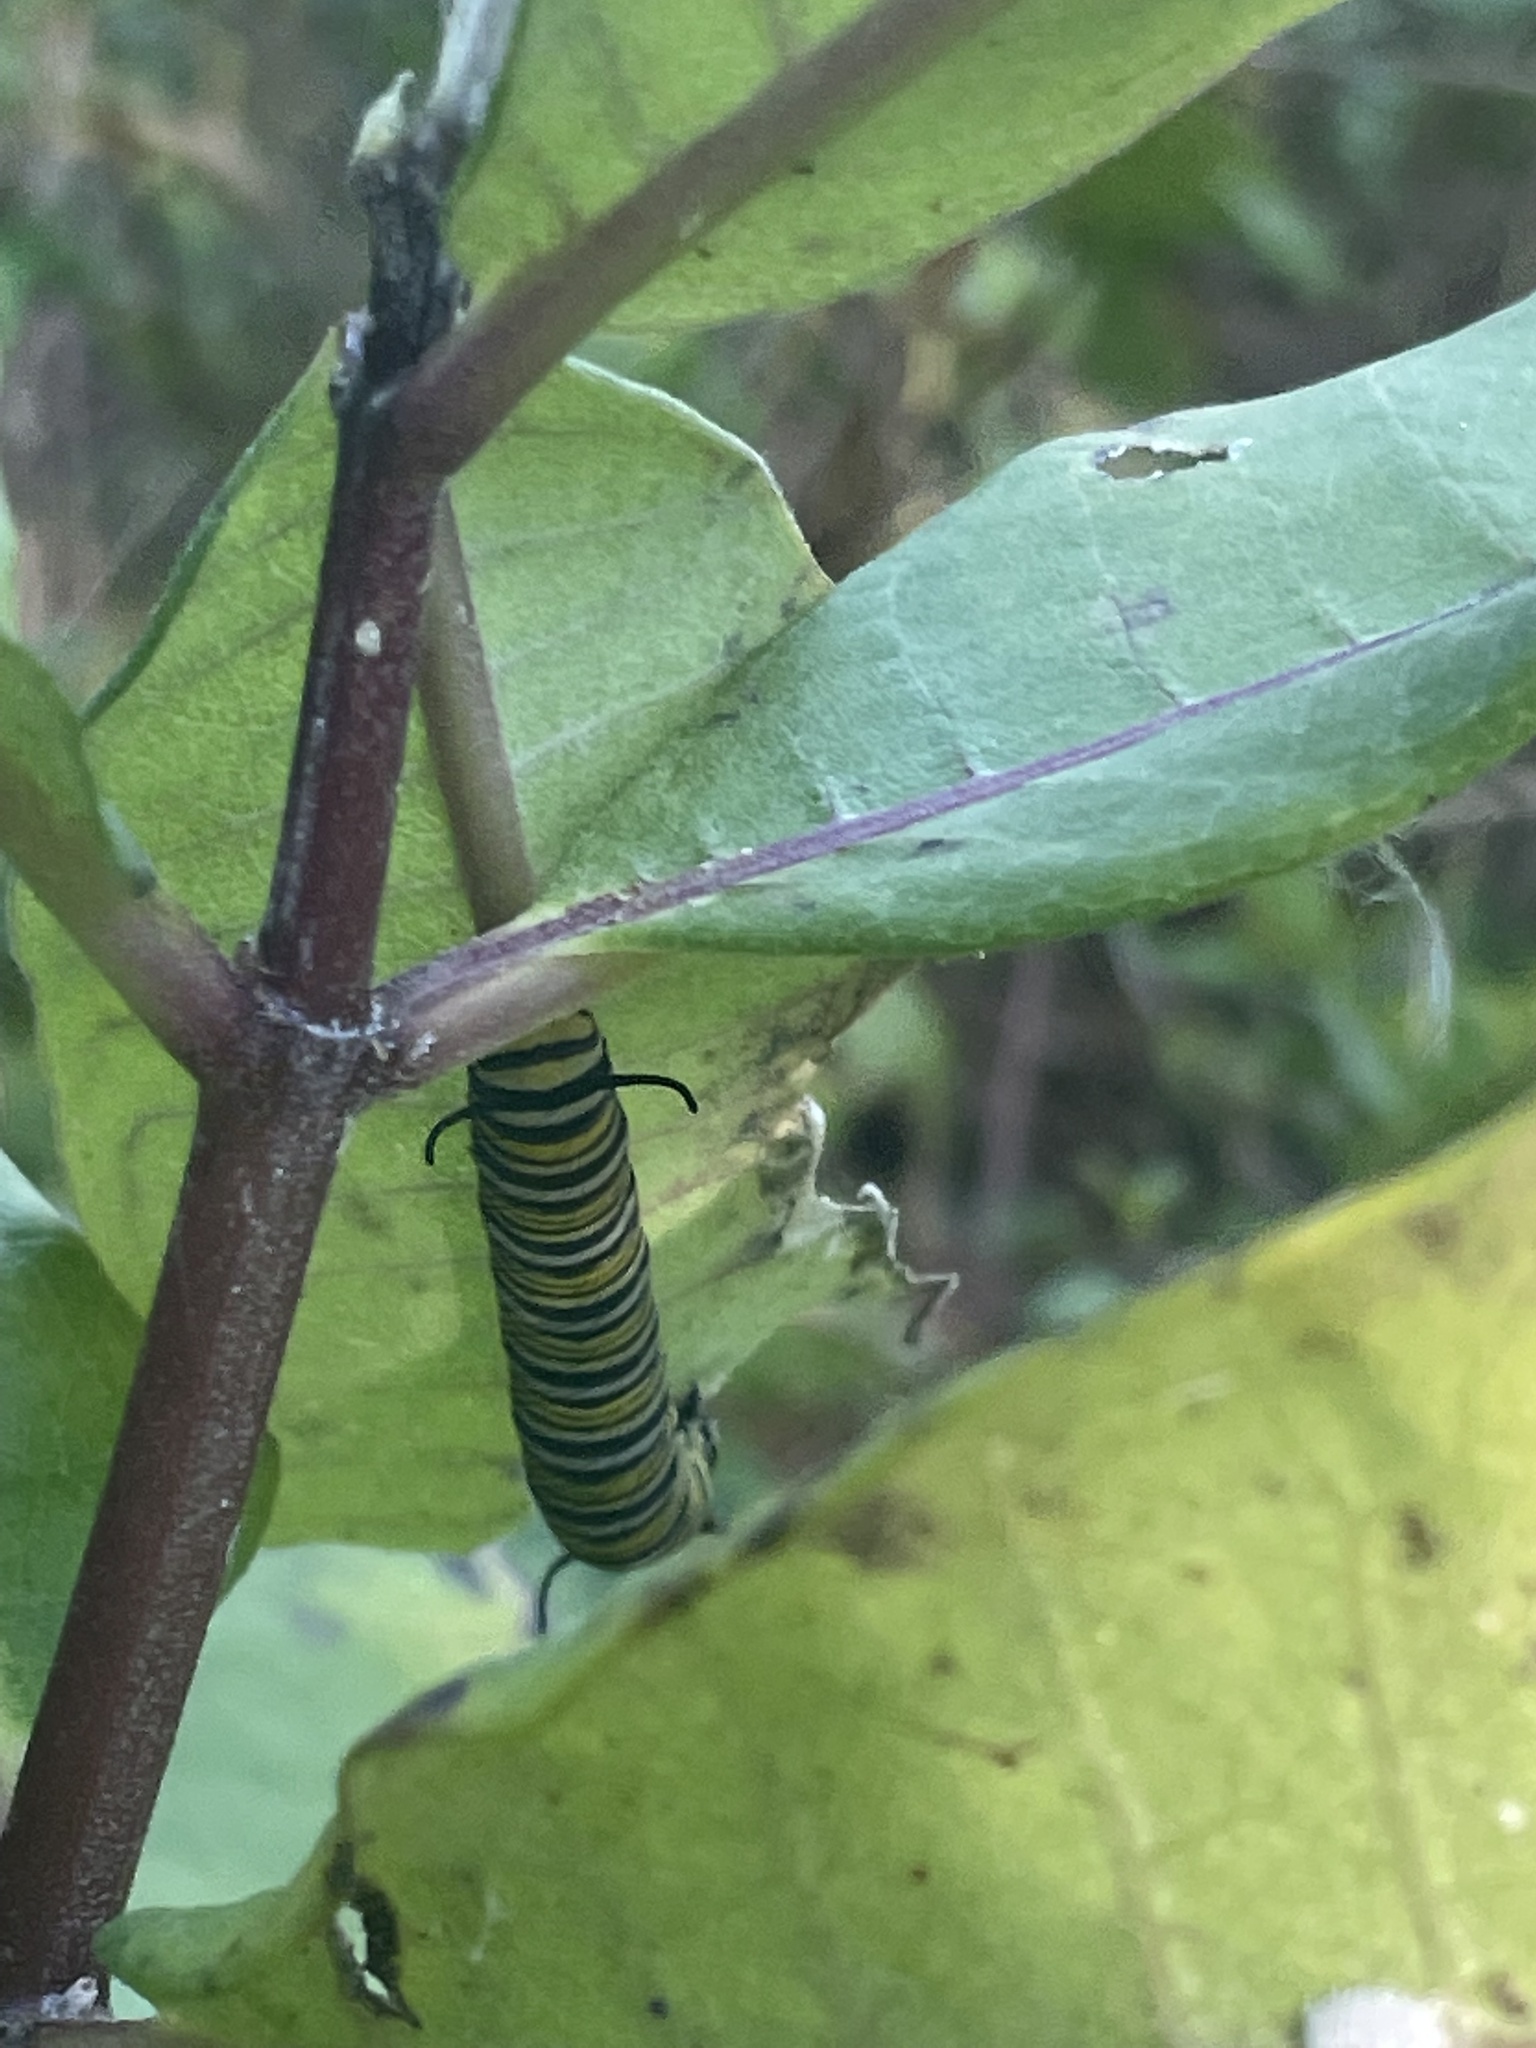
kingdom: Animalia
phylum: Arthropoda
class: Insecta
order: Lepidoptera
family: Nymphalidae
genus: Danaus
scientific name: Danaus plexippus
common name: Monarch
